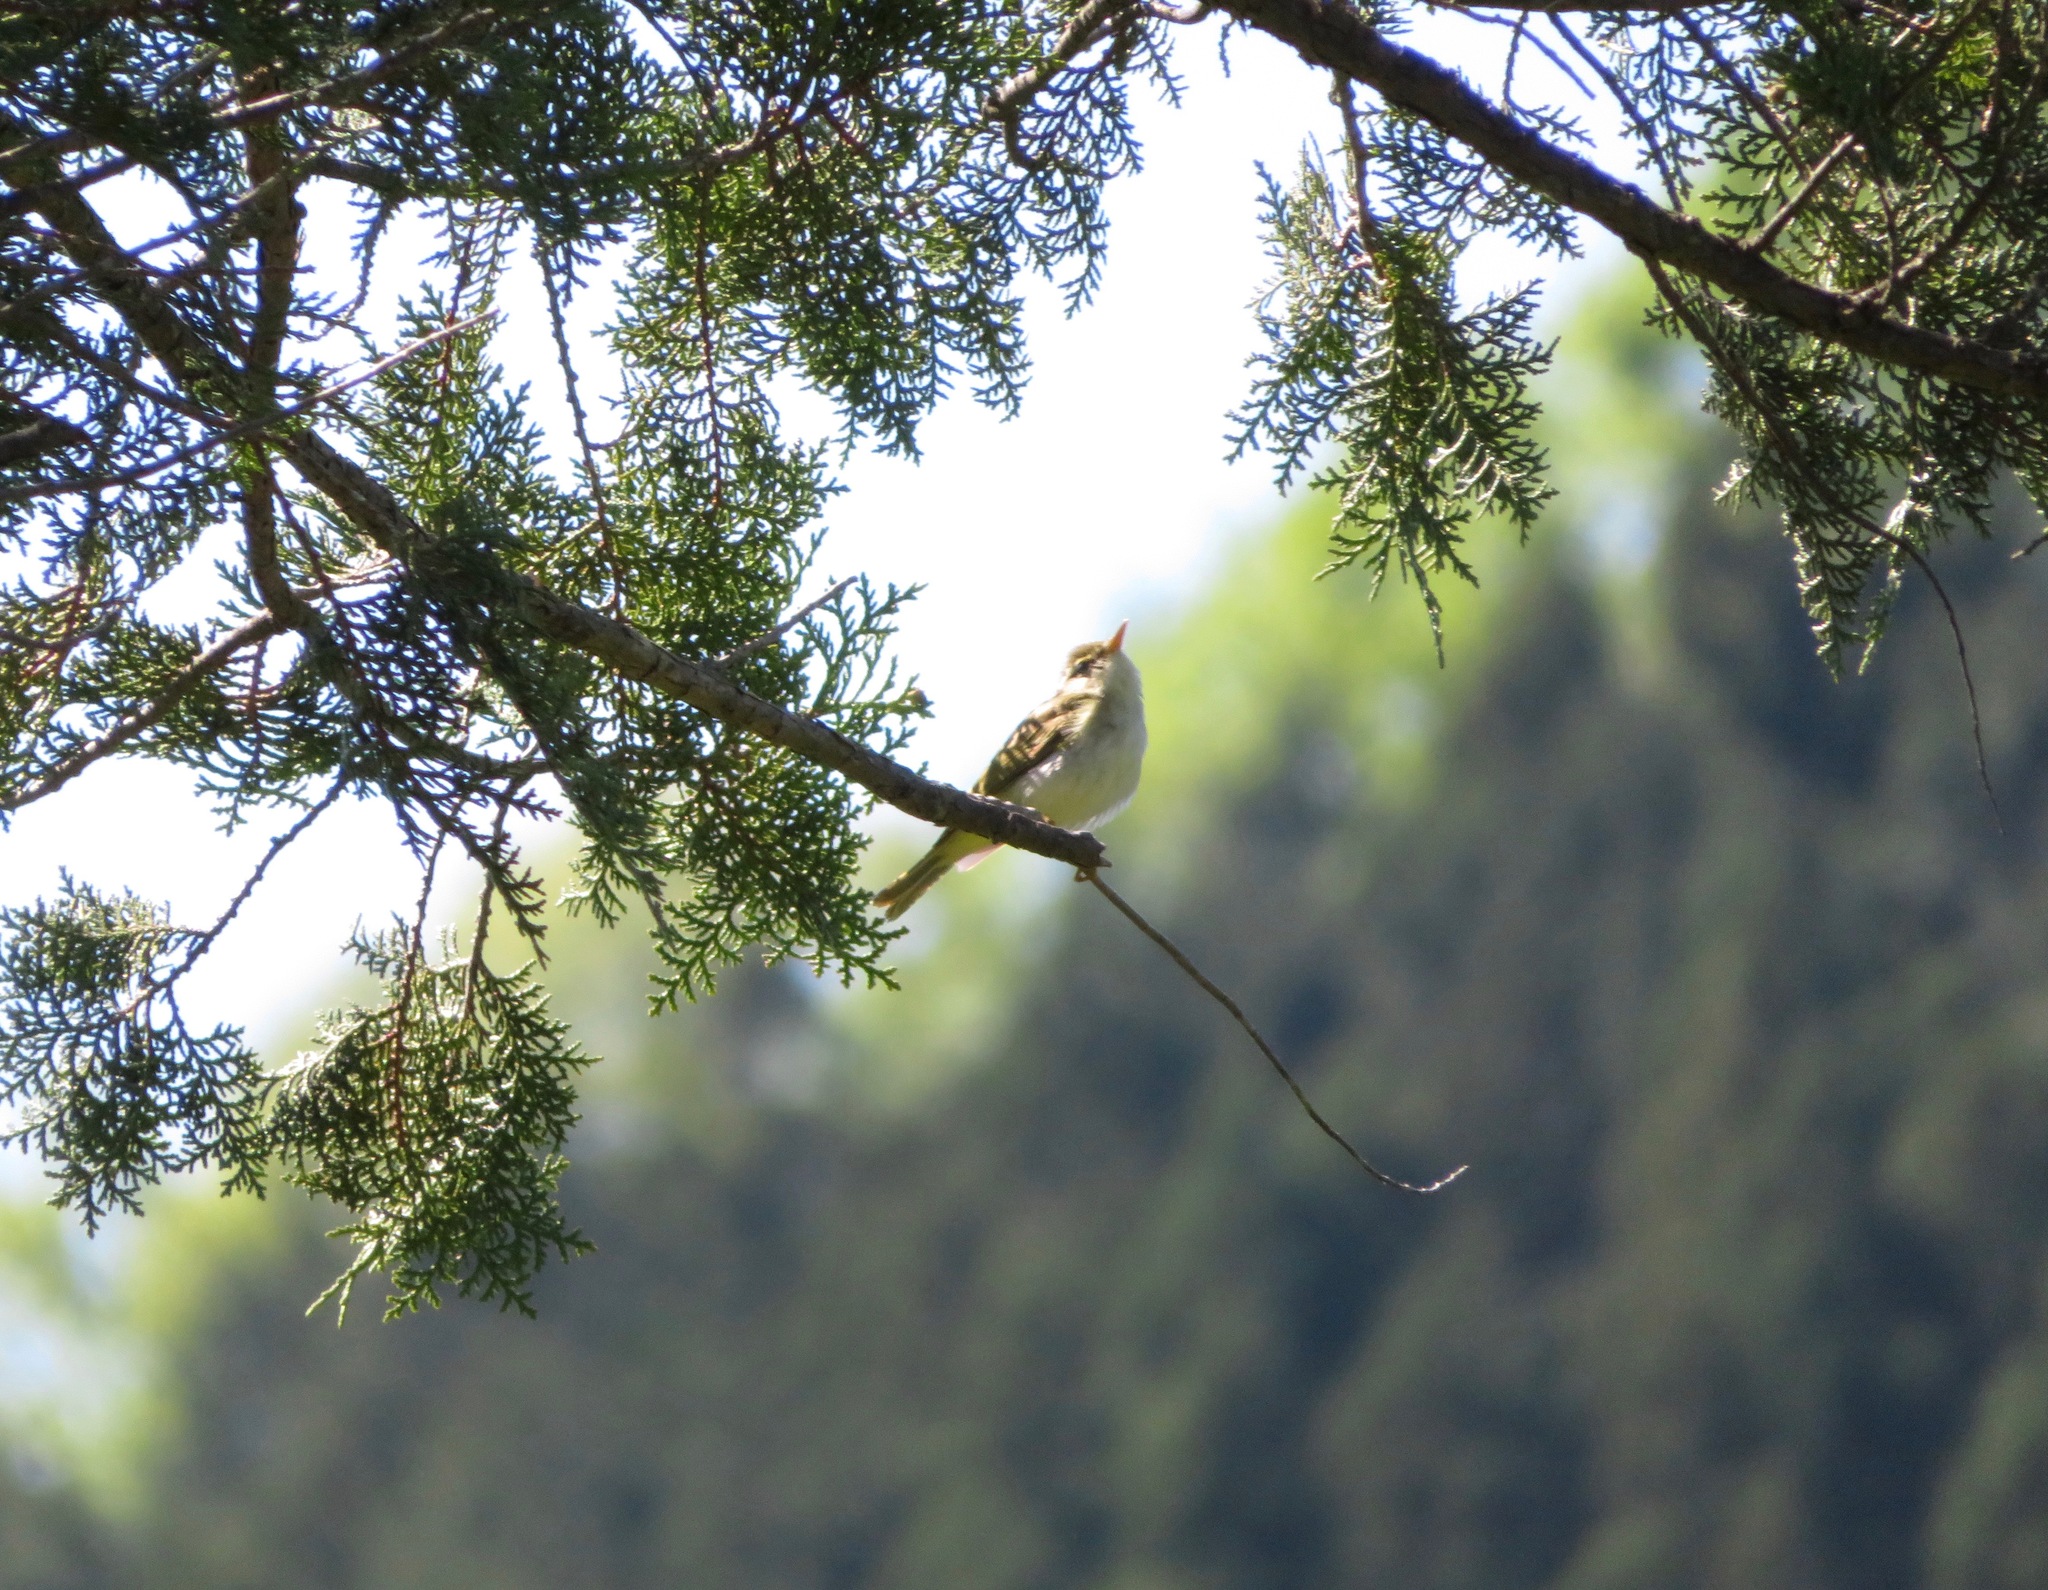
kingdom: Animalia
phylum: Chordata
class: Aves
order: Passeriformes
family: Phylloscopidae
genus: Phylloscopus
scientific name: Phylloscopus coronatus
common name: Eastern crowned warbler
